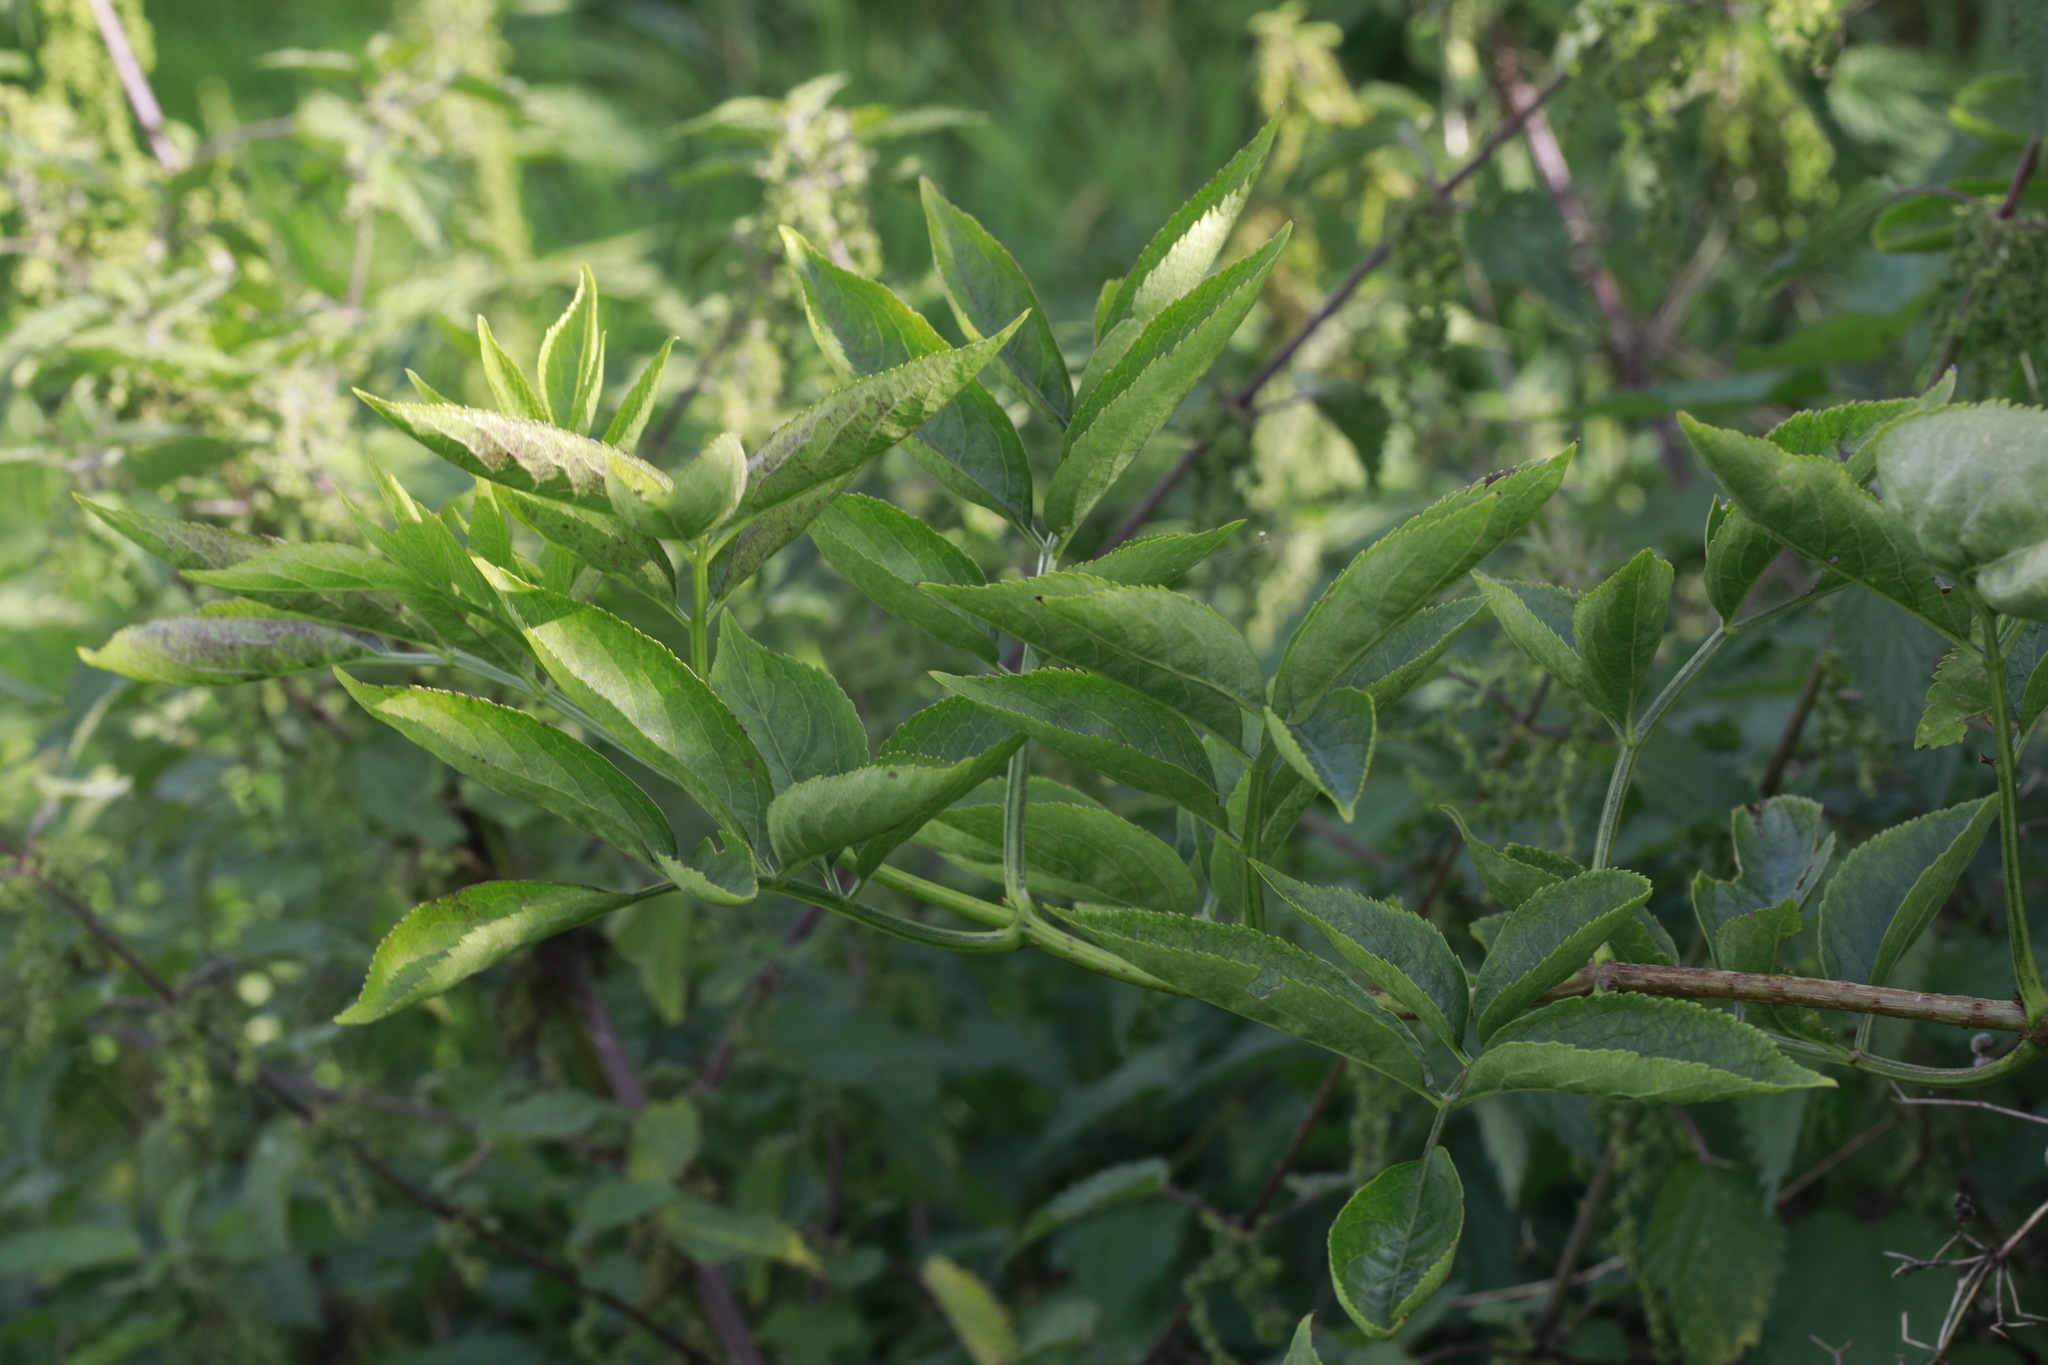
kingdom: Plantae
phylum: Tracheophyta
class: Magnoliopsida
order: Dipsacales
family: Viburnaceae
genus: Sambucus
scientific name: Sambucus nigra
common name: Elder
